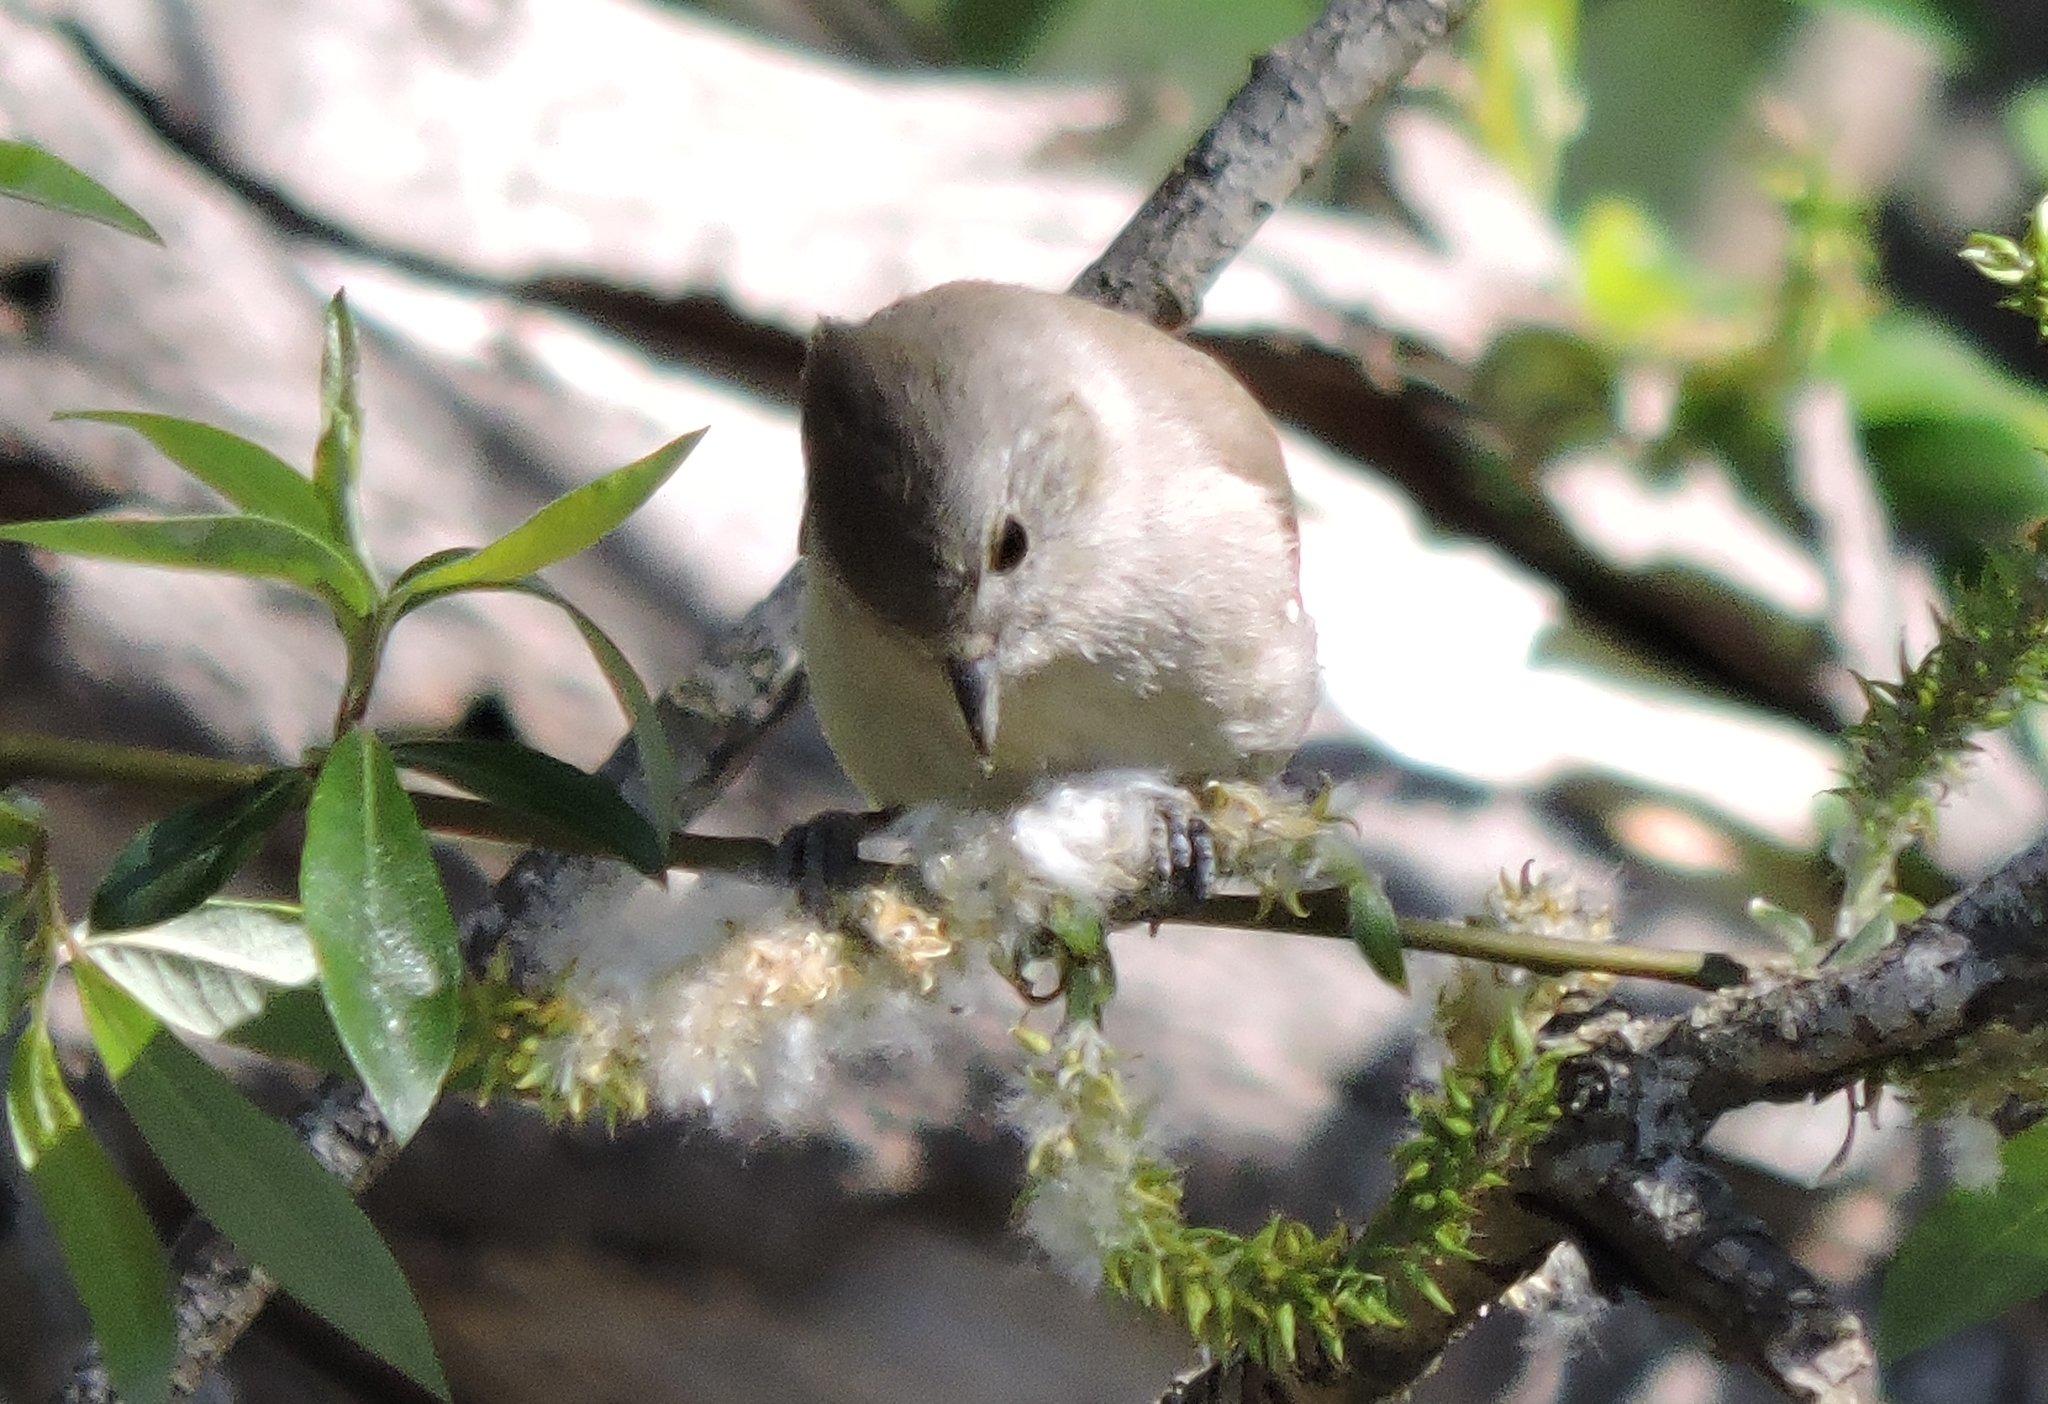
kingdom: Animalia
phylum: Chordata
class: Aves
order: Passeriformes
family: Paridae
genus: Baeolophus
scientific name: Baeolophus inornatus
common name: Oak titmouse
